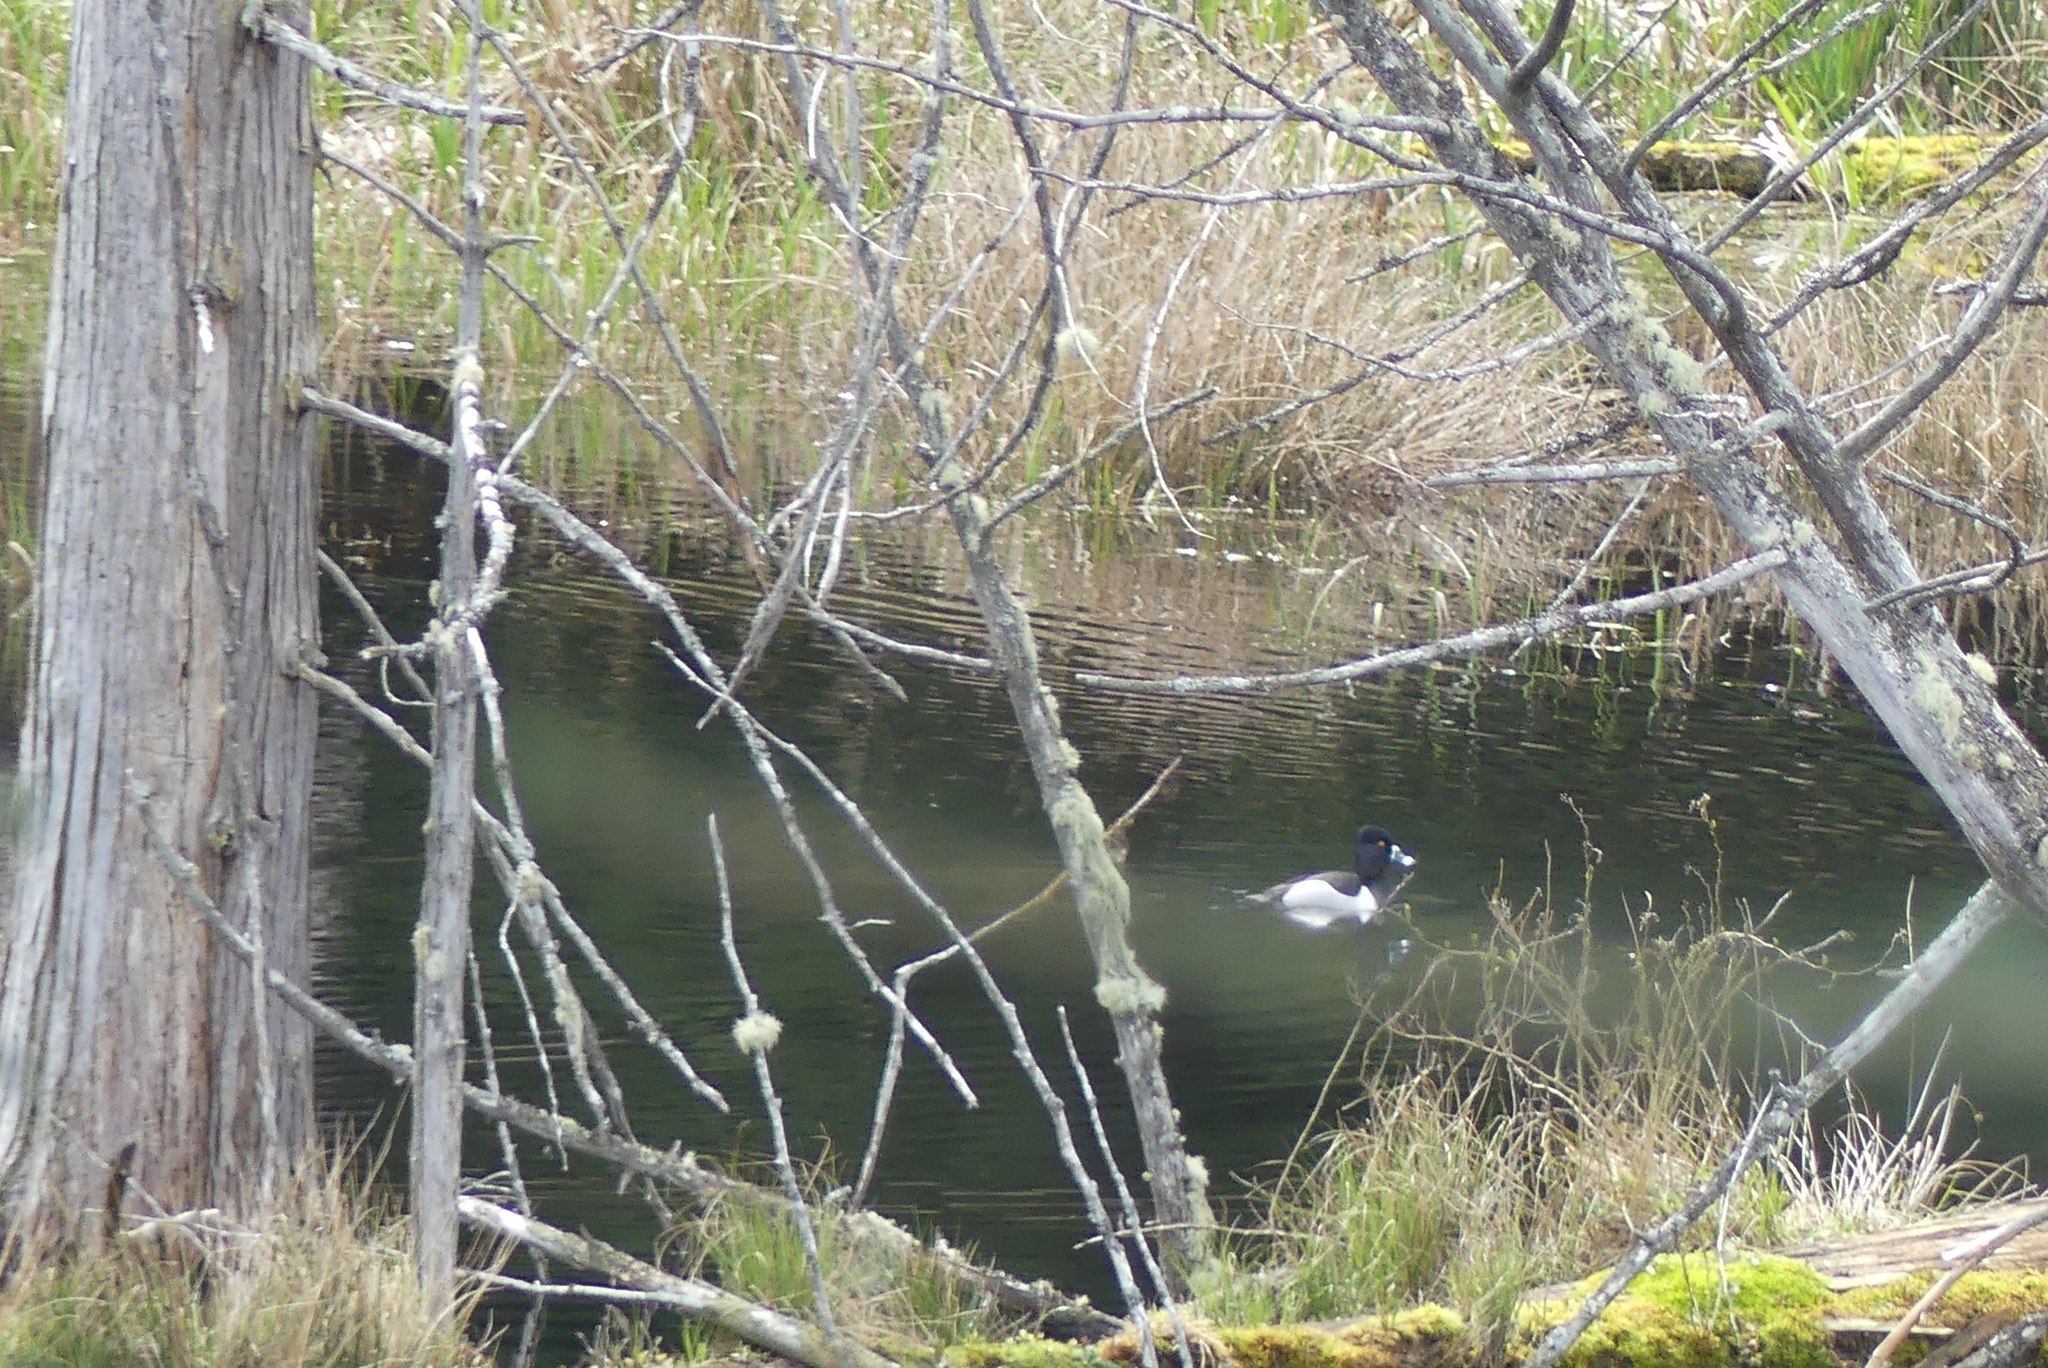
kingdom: Animalia
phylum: Chordata
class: Aves
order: Anseriformes
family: Anatidae
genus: Aythya
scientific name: Aythya collaris
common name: Ring-necked duck
